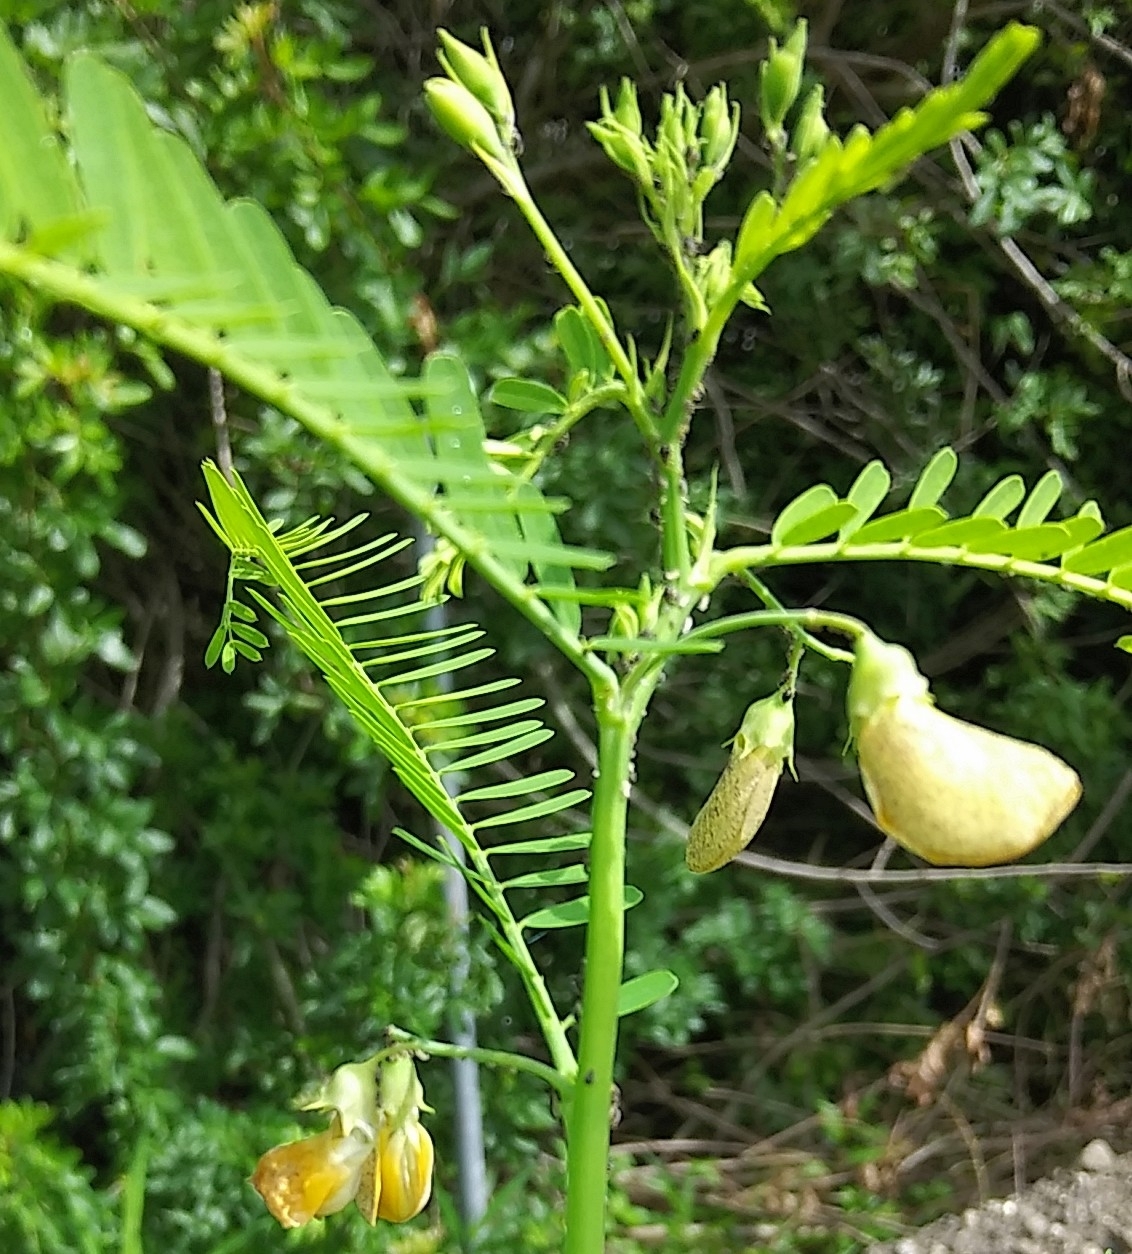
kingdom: Plantae
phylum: Tracheophyta
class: Magnoliopsida
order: Fabales
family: Fabaceae
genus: Sesbania
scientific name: Sesbania herbacea
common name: Bigpod sesbania
